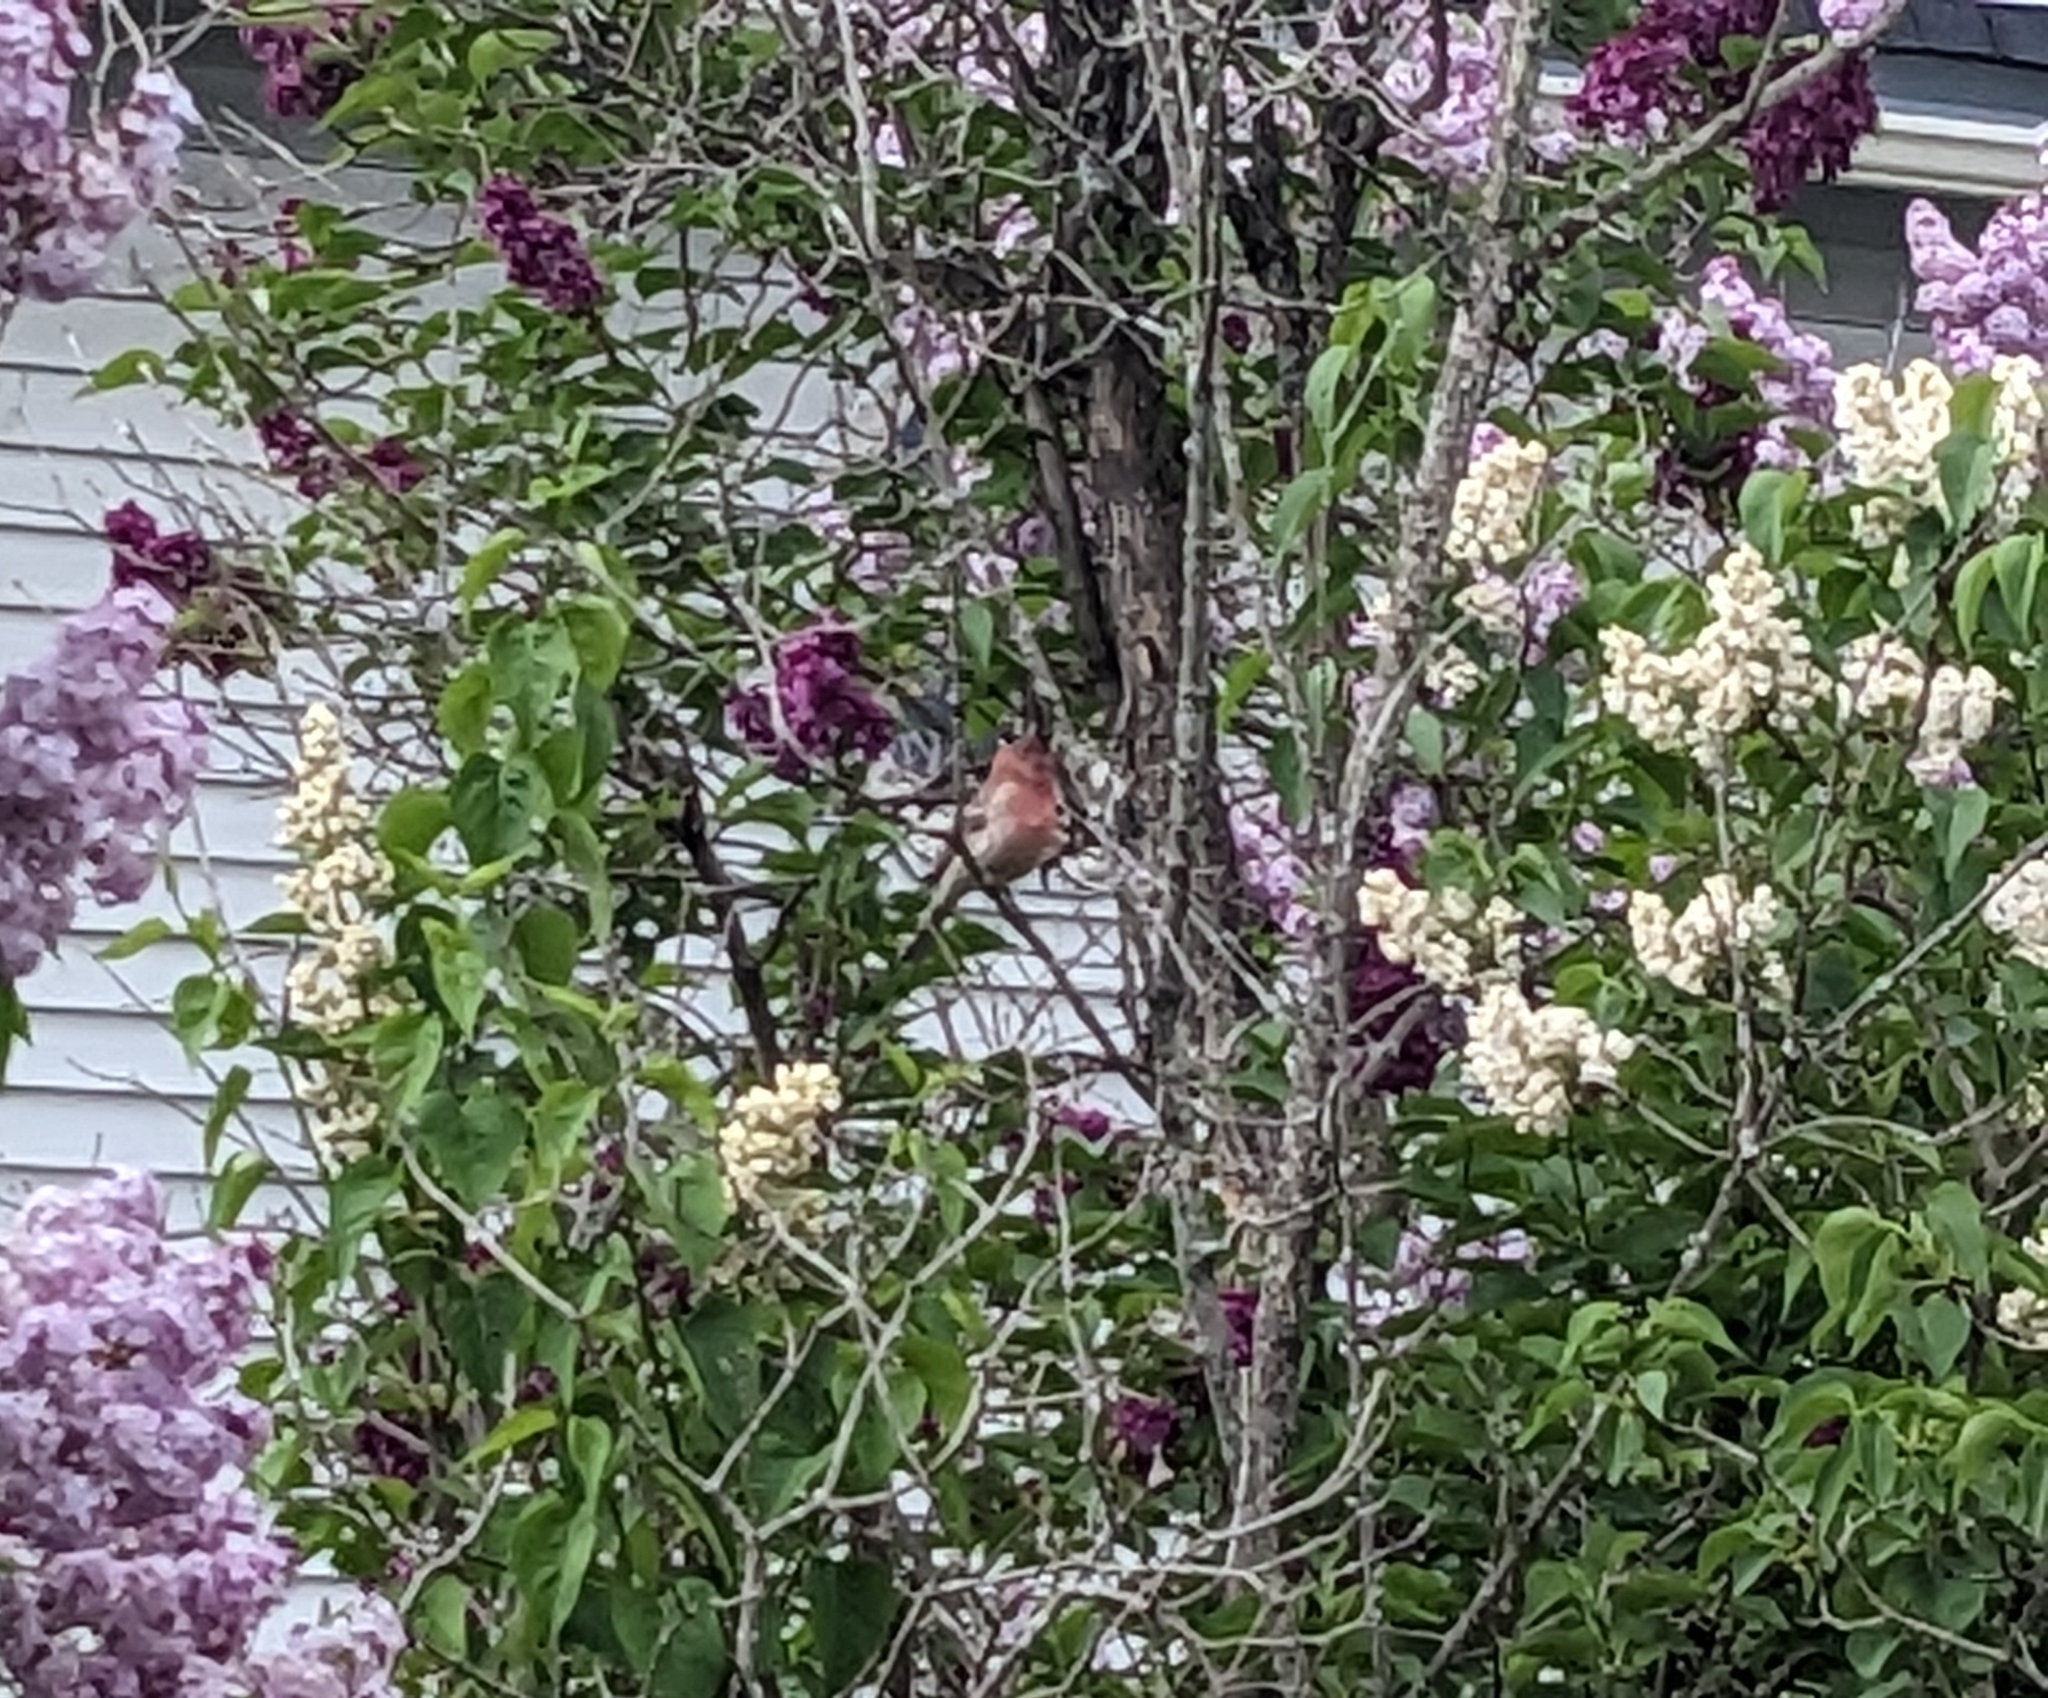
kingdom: Animalia
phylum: Chordata
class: Aves
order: Passeriformes
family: Fringillidae
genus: Haemorhous
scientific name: Haemorhous mexicanus
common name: House finch
